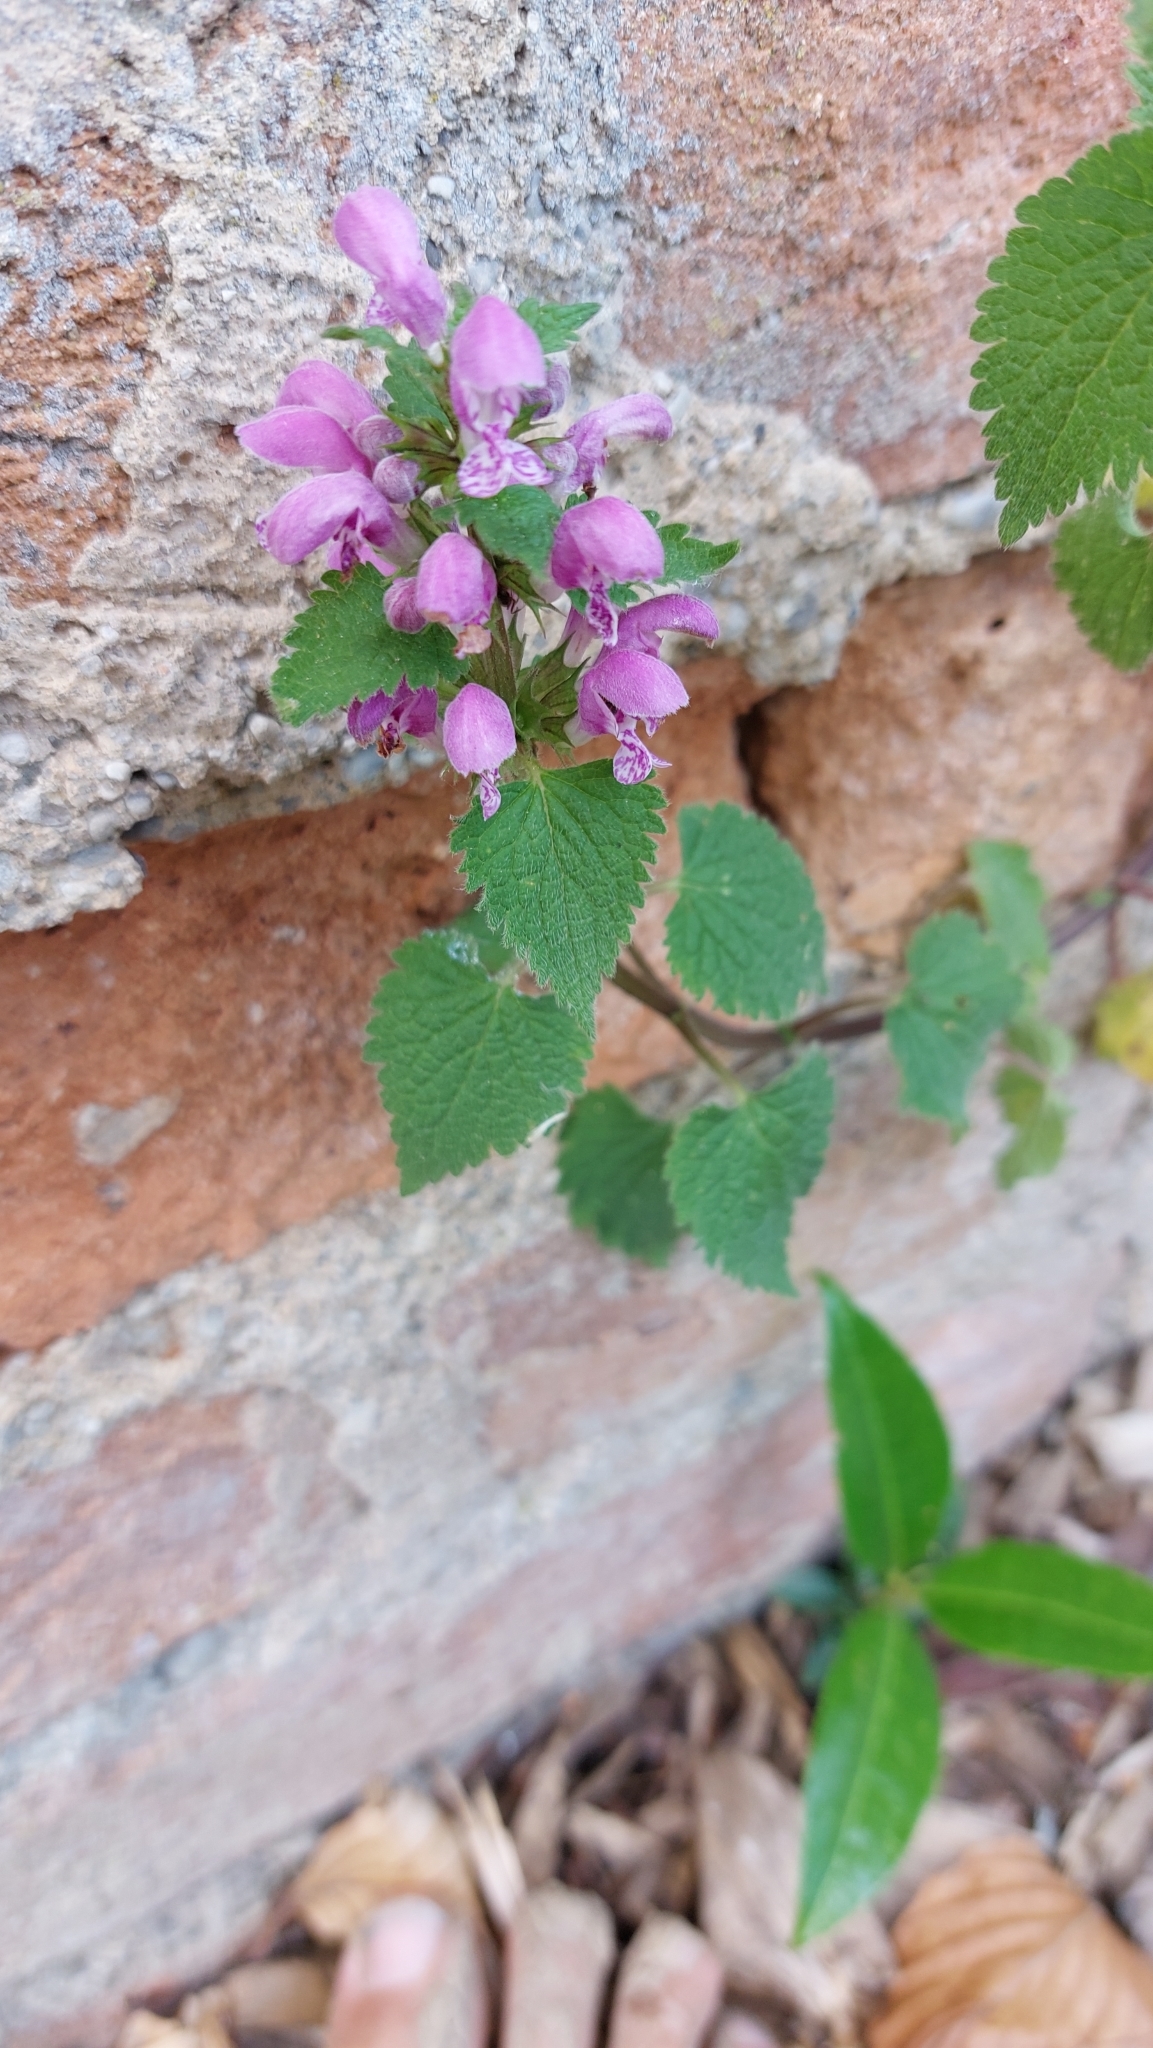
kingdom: Plantae
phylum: Tracheophyta
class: Magnoliopsida
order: Lamiales
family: Lamiaceae
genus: Lamium
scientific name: Lamium maculatum
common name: Spotted dead-nettle
